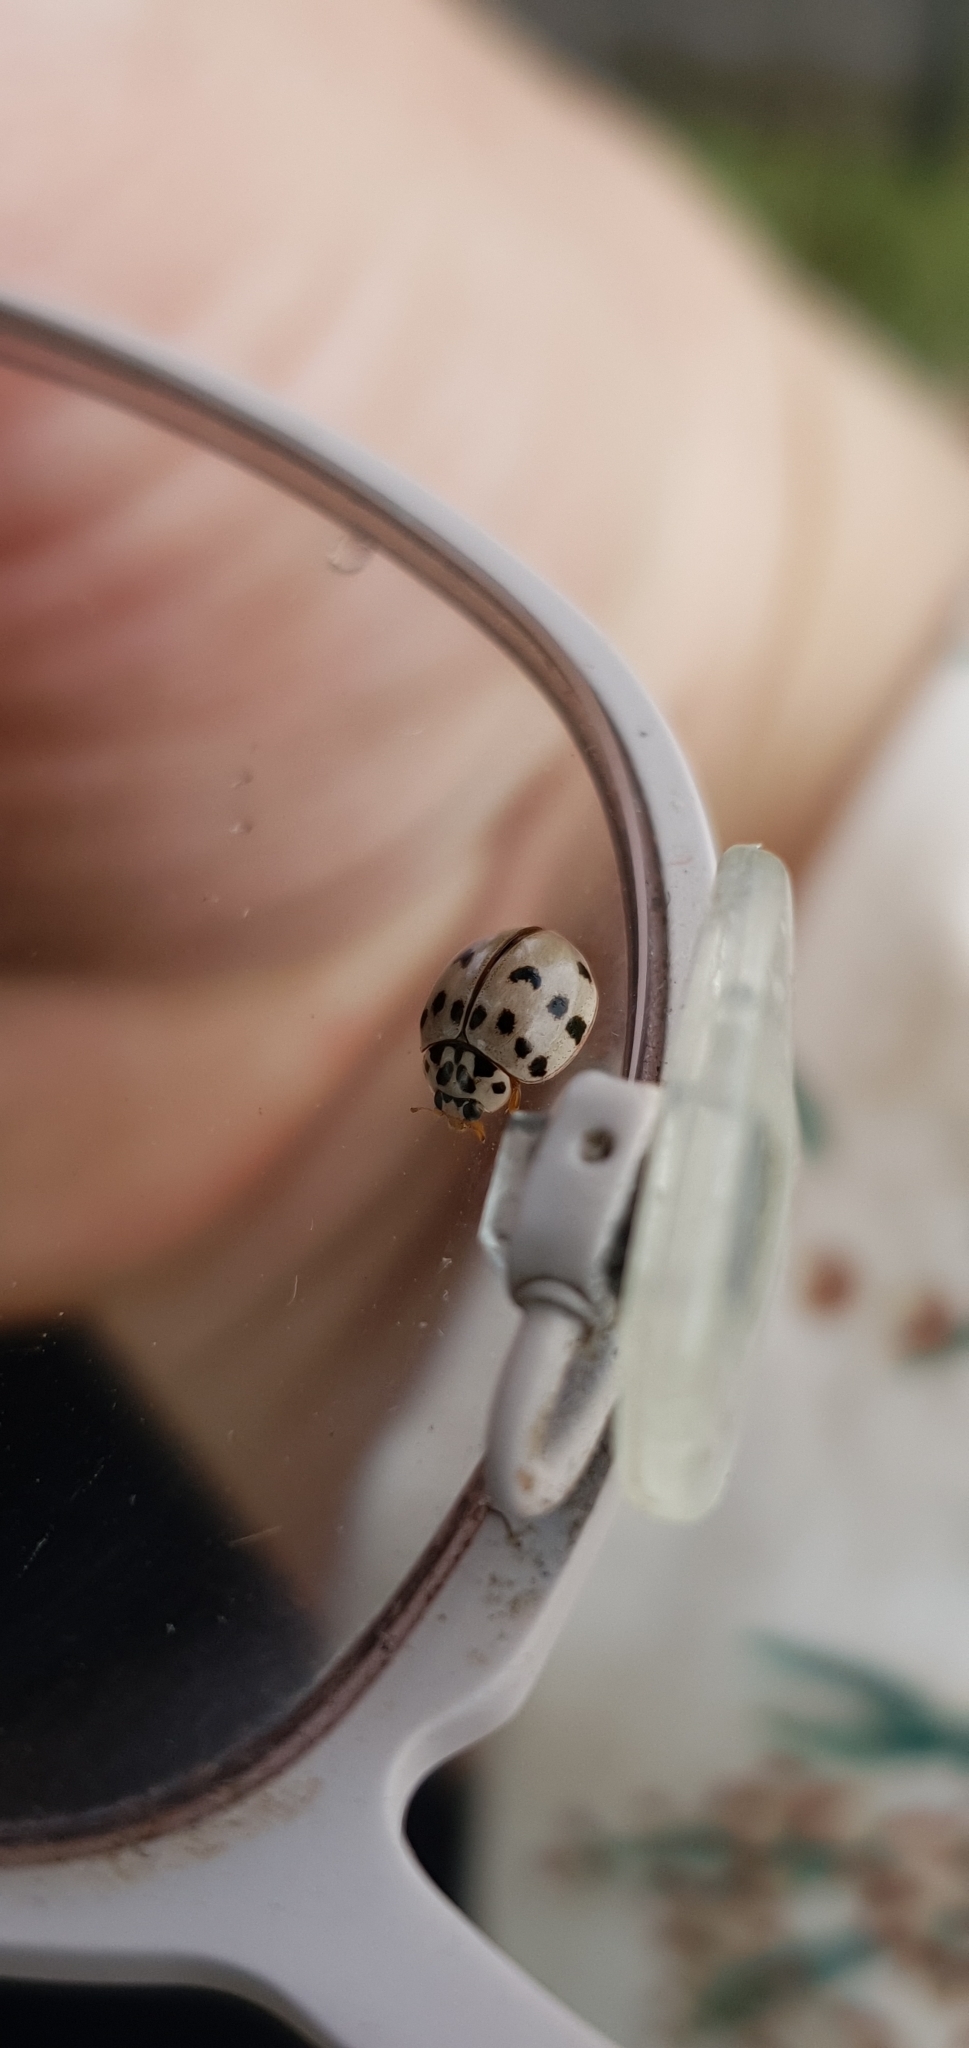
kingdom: Animalia
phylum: Arthropoda
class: Insecta
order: Coleoptera
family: Coccinellidae
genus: Olla
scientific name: Olla v-nigrum
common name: Ashy gray lady beetle
